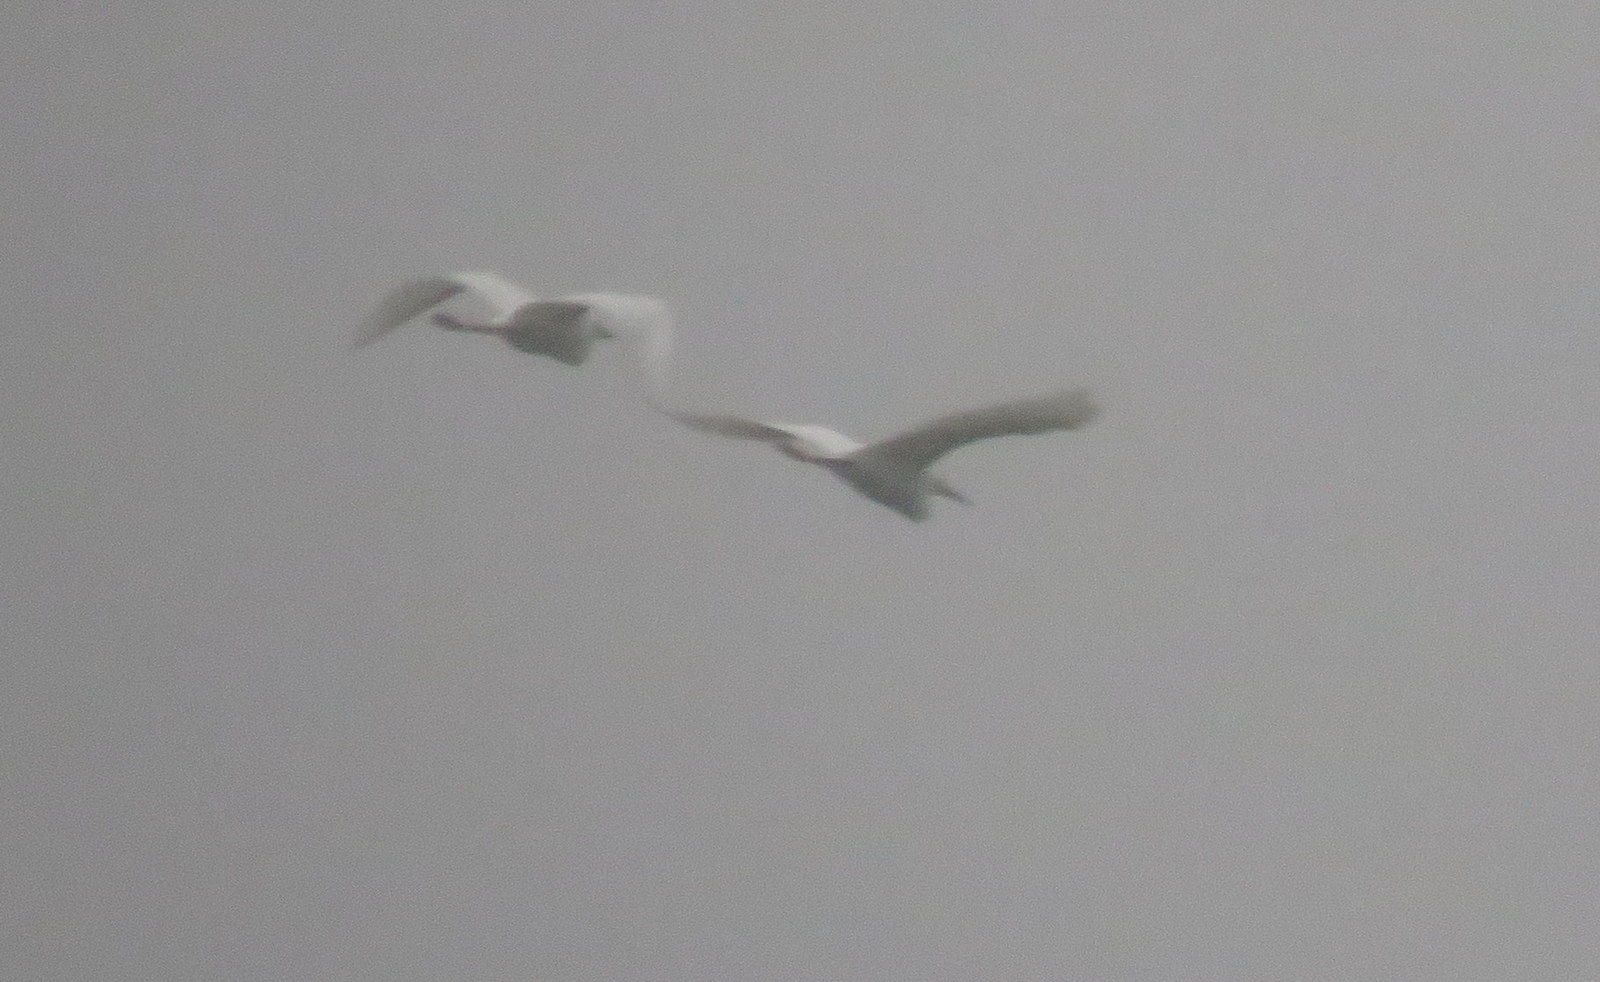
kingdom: Animalia
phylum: Chordata
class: Aves
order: Pelecaniformes
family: Ardeidae
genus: Ardea
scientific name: Ardea alba
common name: Great egret
